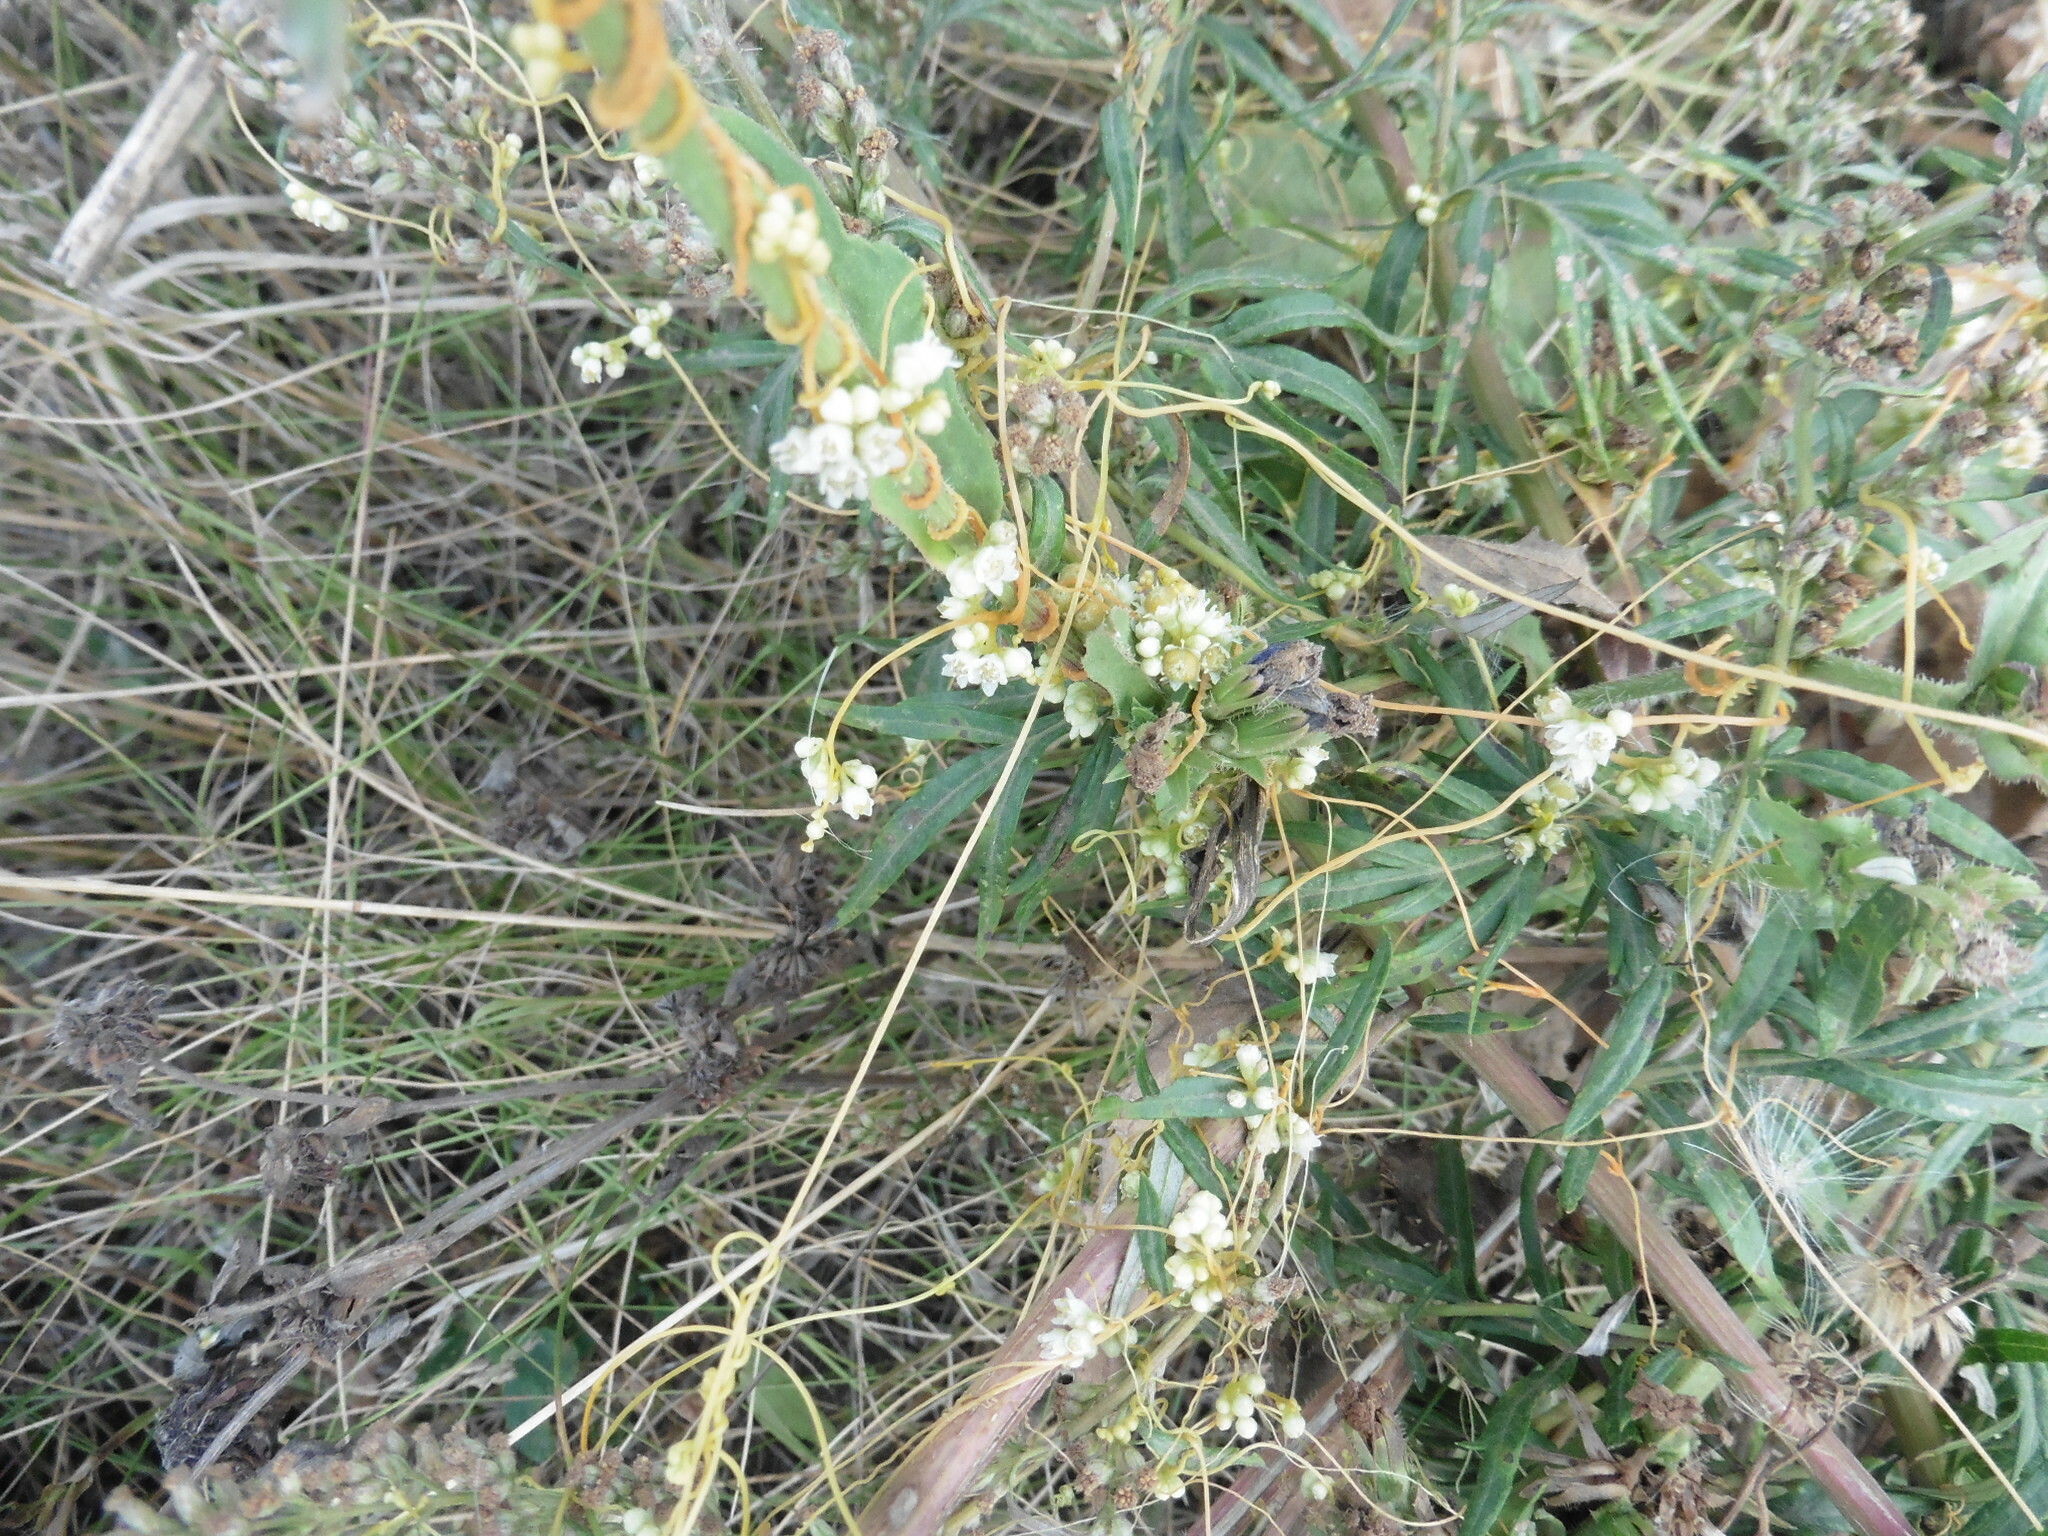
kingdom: Plantae
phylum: Tracheophyta
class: Magnoliopsida
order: Solanales
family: Convolvulaceae
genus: Cuscuta
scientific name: Cuscuta campestris
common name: Yellow dodder
